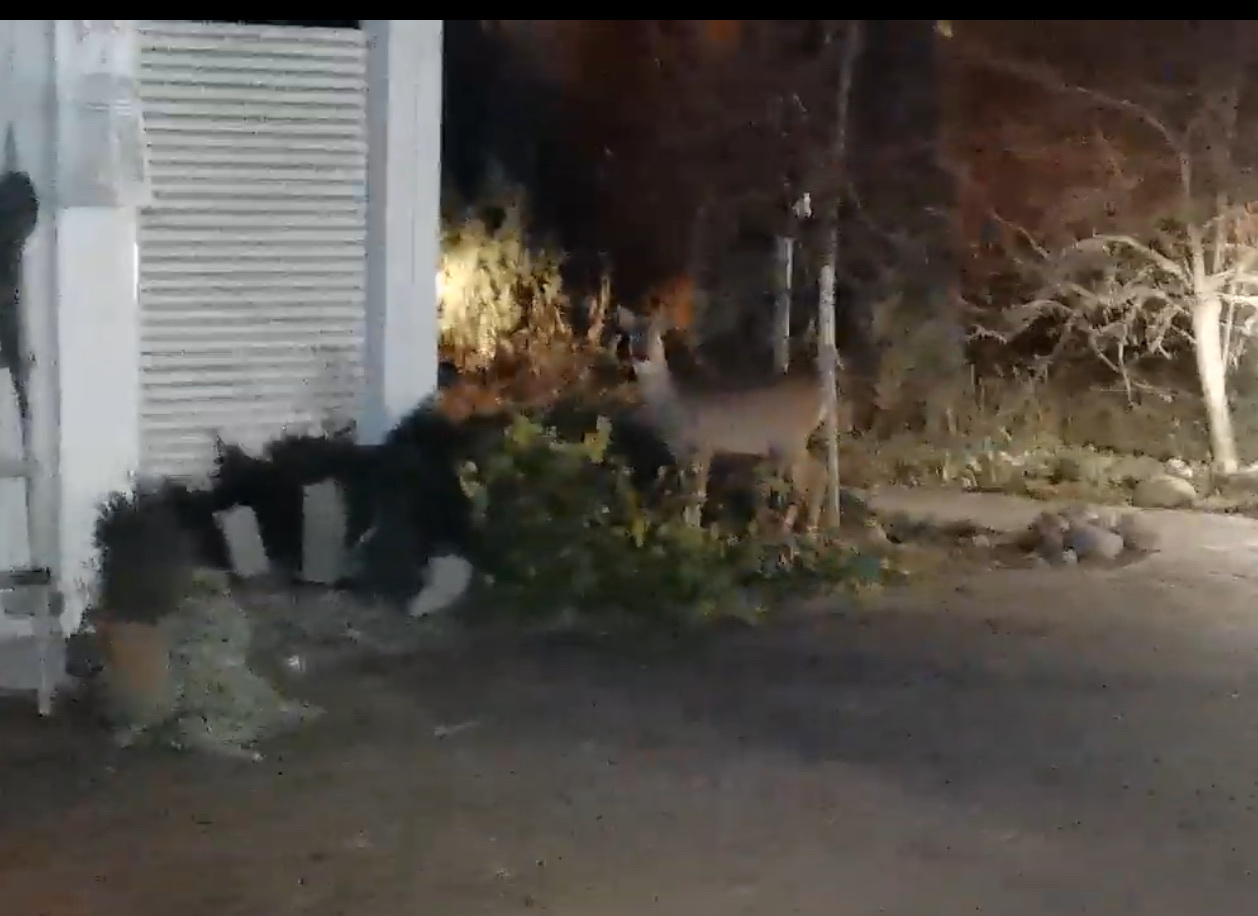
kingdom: Animalia
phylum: Chordata
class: Mammalia
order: Artiodactyla
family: Cervidae
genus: Capreolus
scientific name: Capreolus capreolus
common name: Western roe deer
